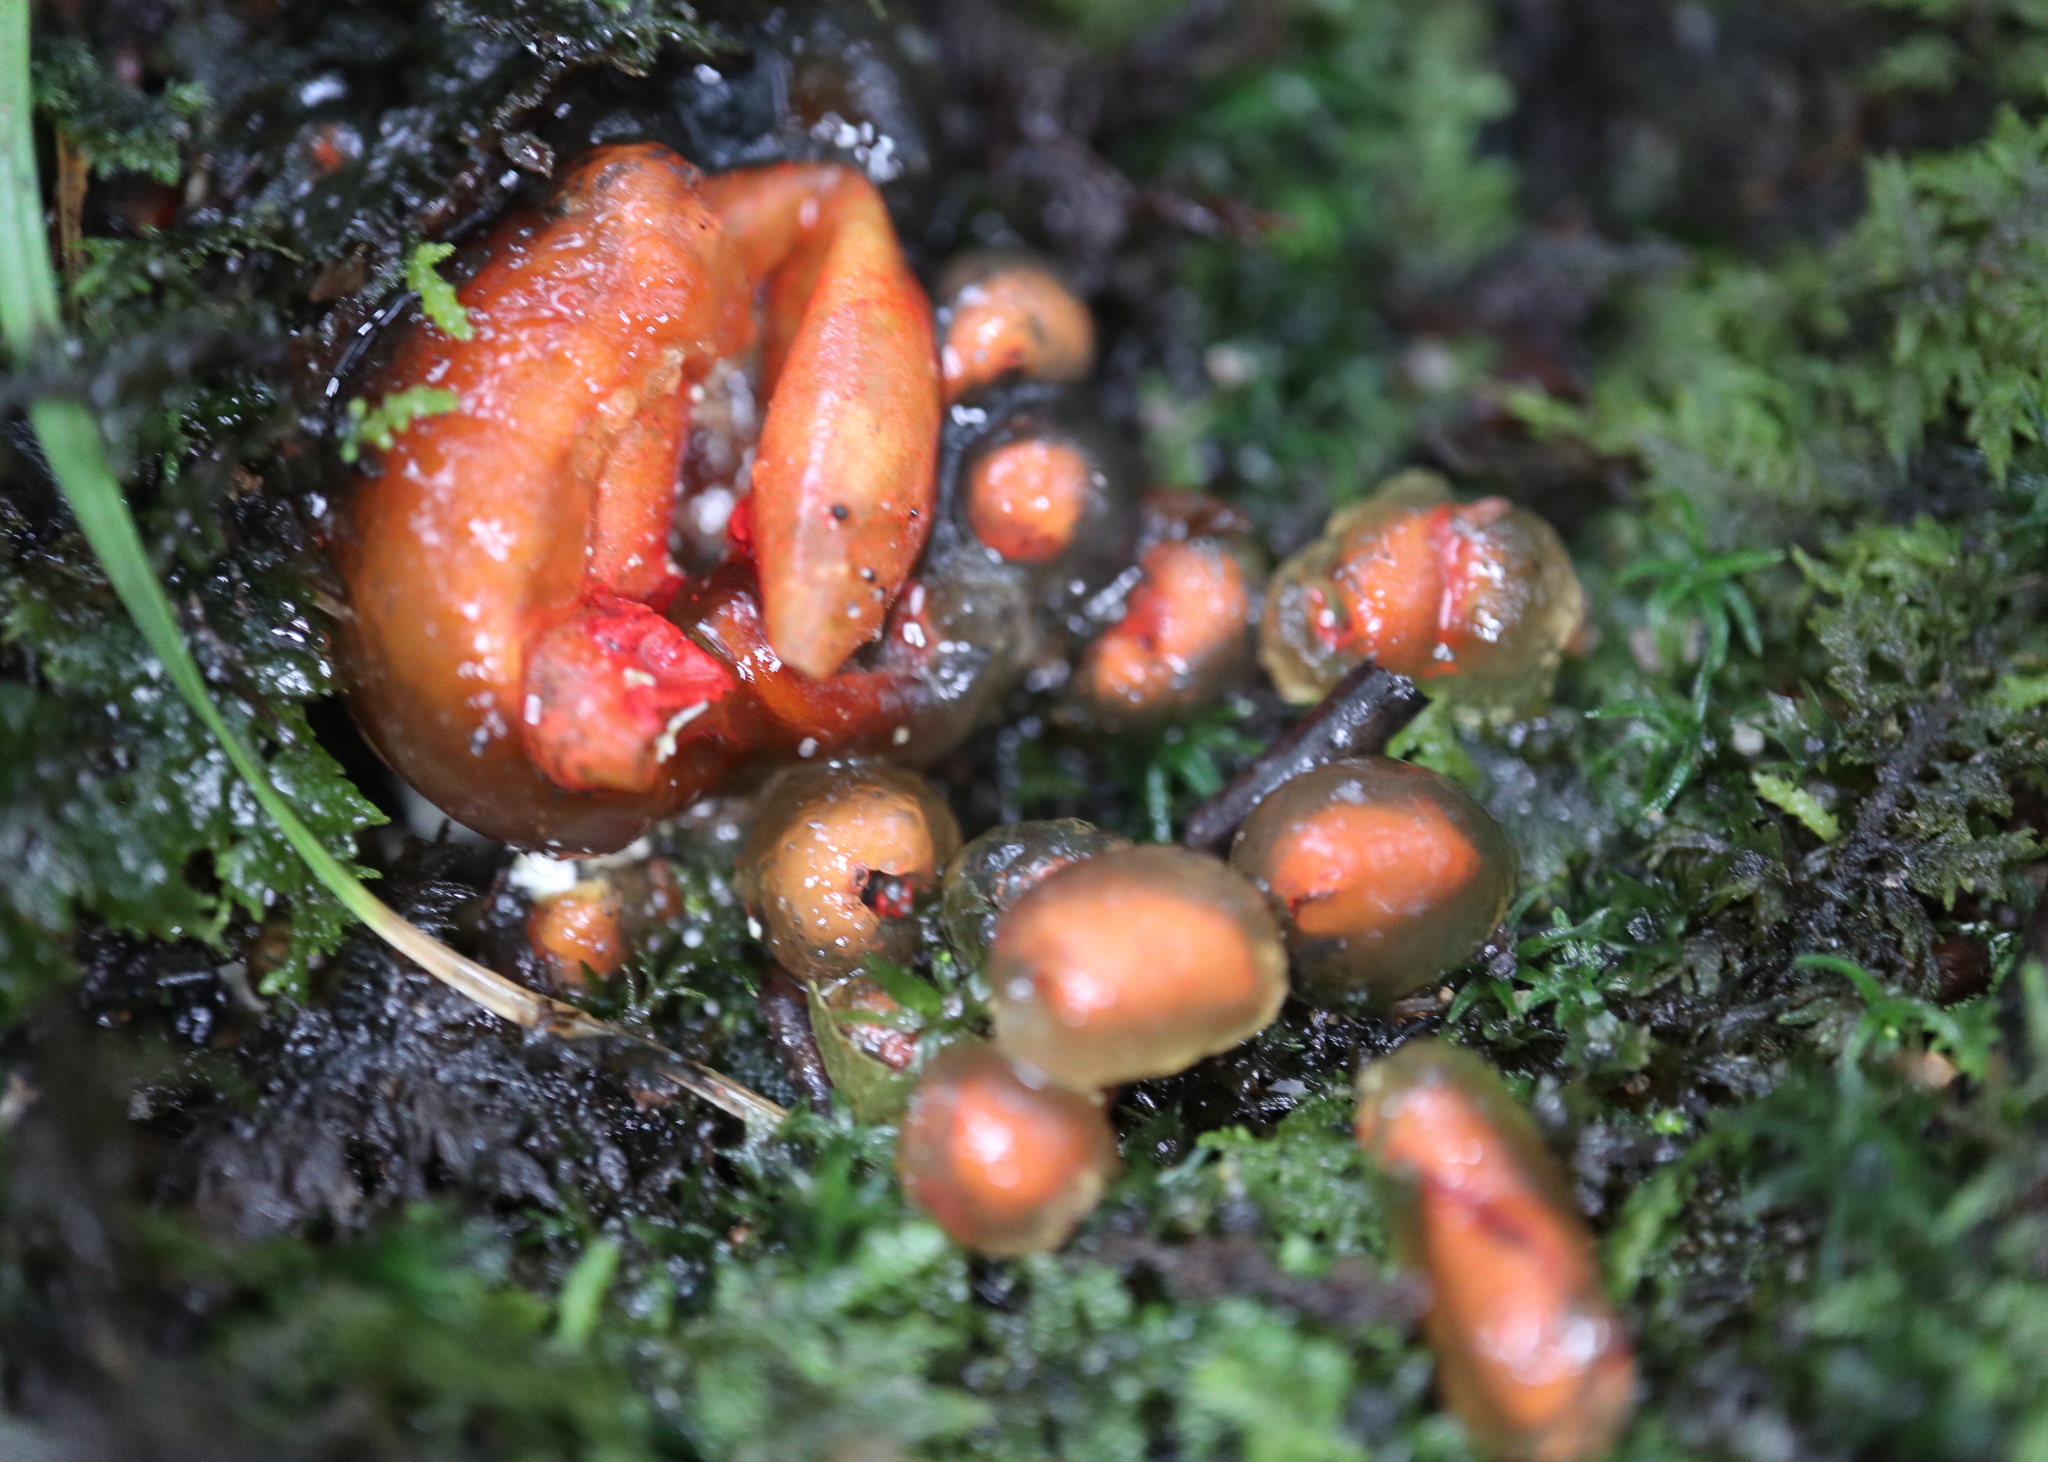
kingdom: Fungi
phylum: Basidiomycota
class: Agaricomycetes
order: Boletales
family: Calostomataceae
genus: Calostoma
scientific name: Calostoma cinnabarinum
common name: Stalked puffball-in-aspic
